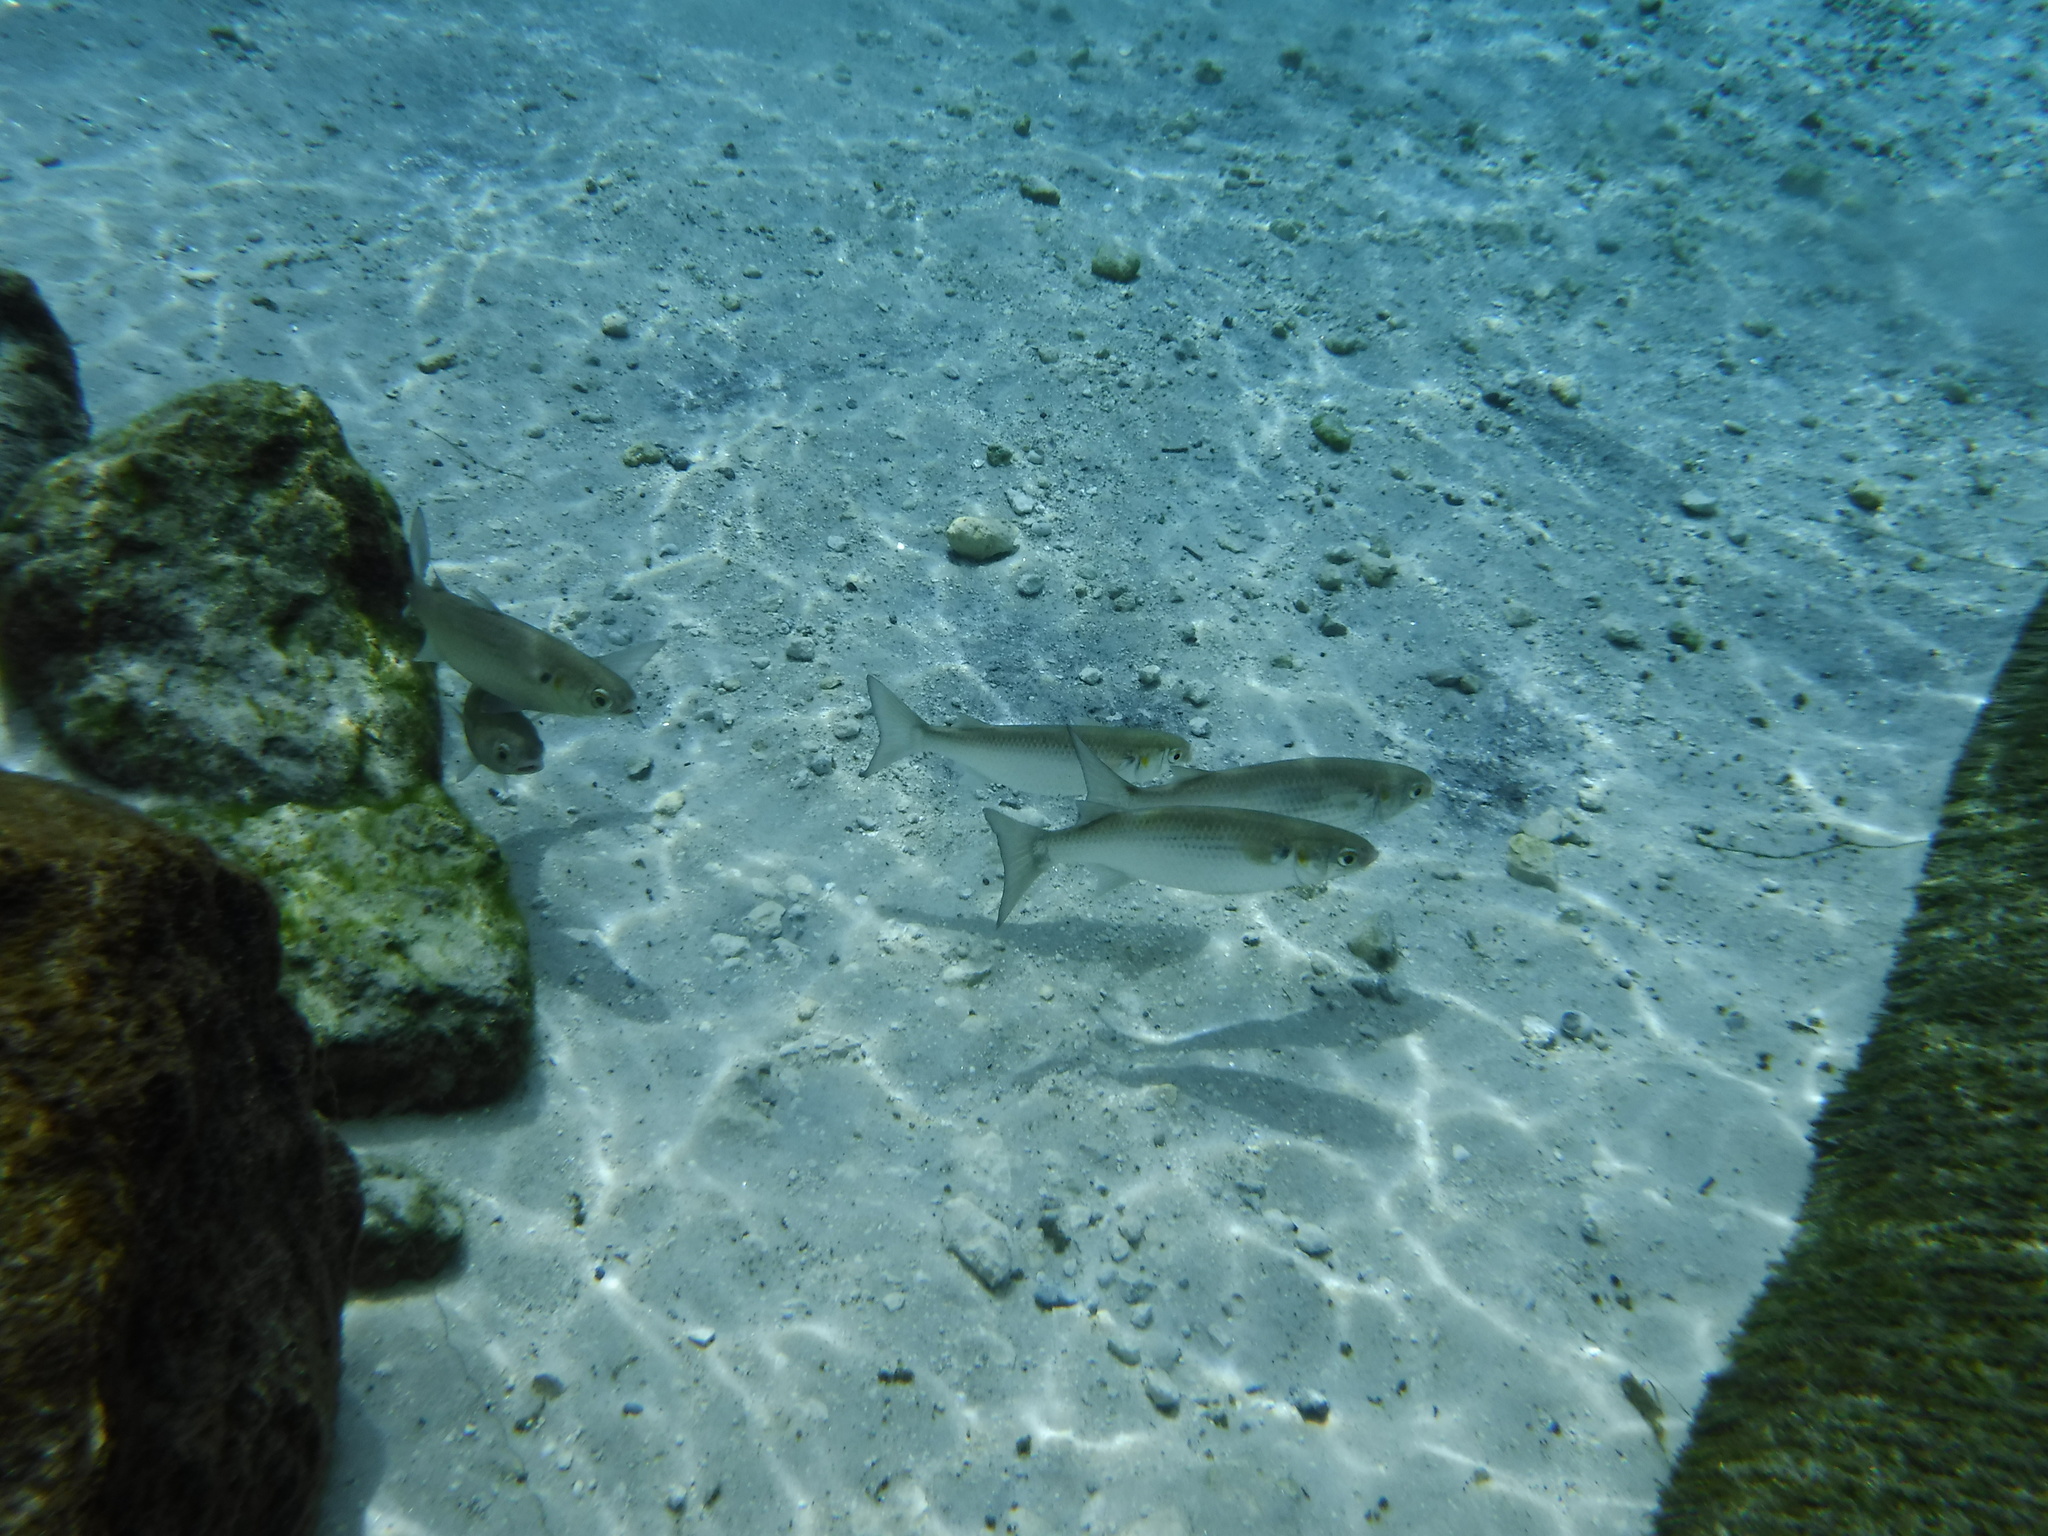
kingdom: Animalia
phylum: Chordata
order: Mugiliformes
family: Mugilidae
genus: Mugil
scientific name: Mugil cephalus
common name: Grey mullet
